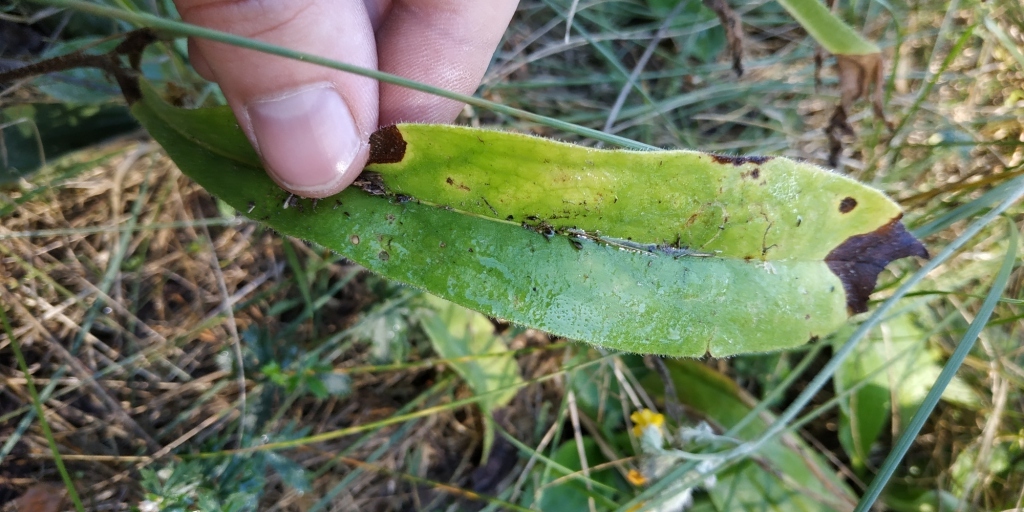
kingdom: Plantae
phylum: Tracheophyta
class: Magnoliopsida
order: Boraginales
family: Boraginaceae
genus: Nonea
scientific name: Nonea pulla
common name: Brown nonea
